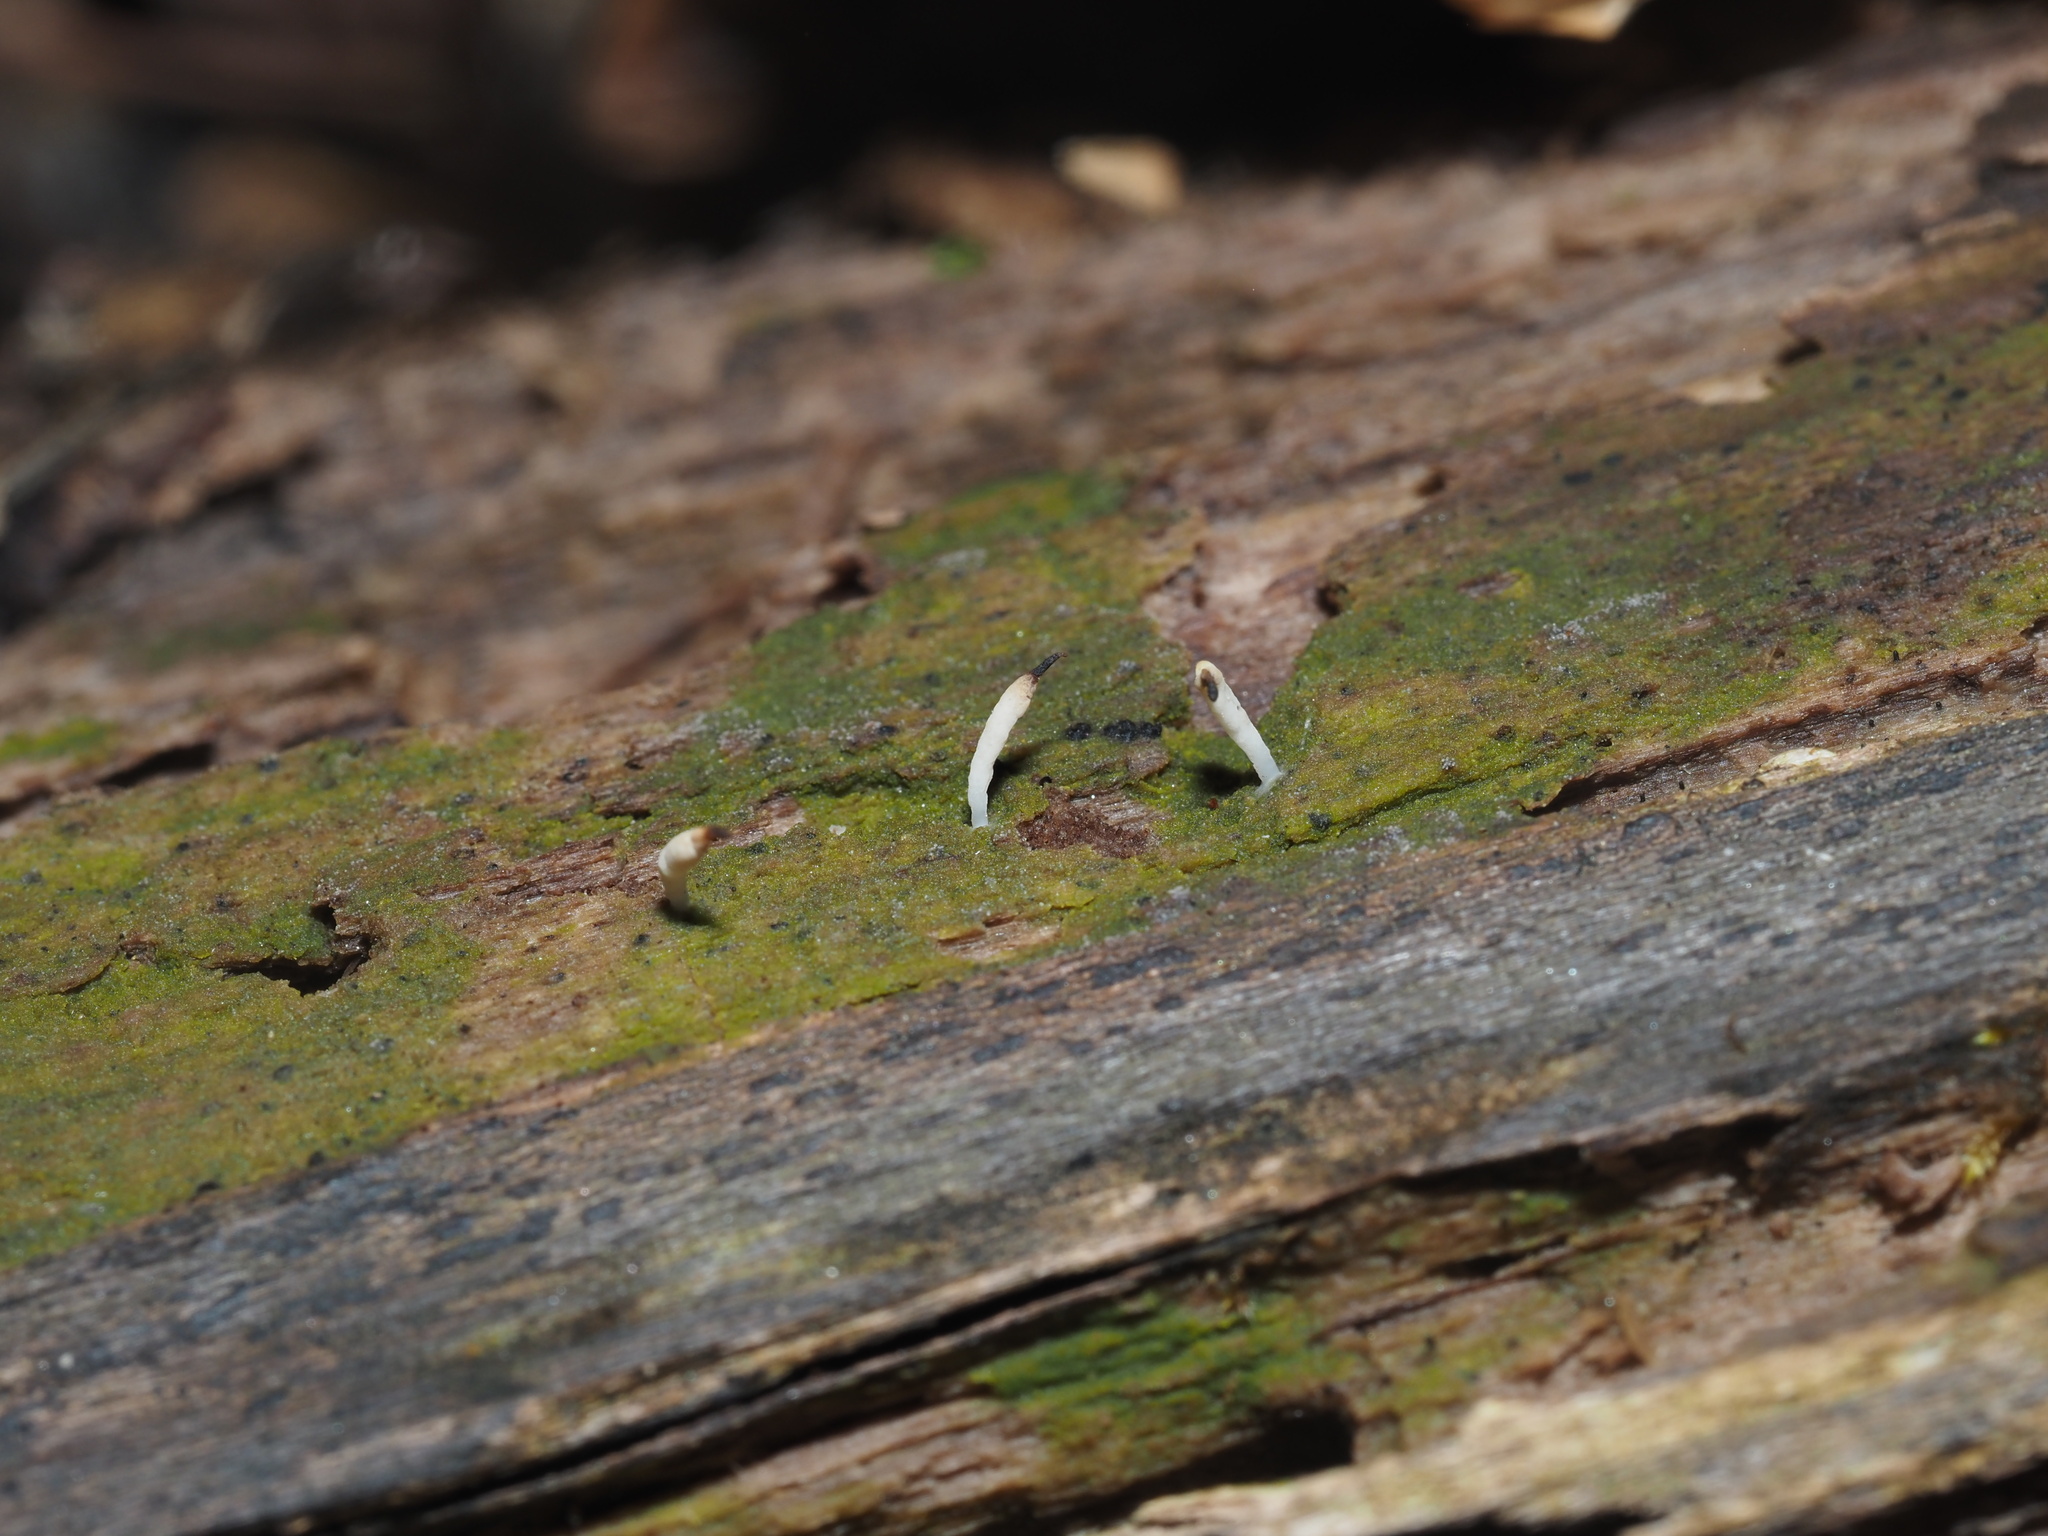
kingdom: Fungi
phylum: Basidiomycota
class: Agaricomycetes
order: Cantharellales
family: Hydnaceae
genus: Multiclavula
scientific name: Multiclavula mucida
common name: White green-algae coral
